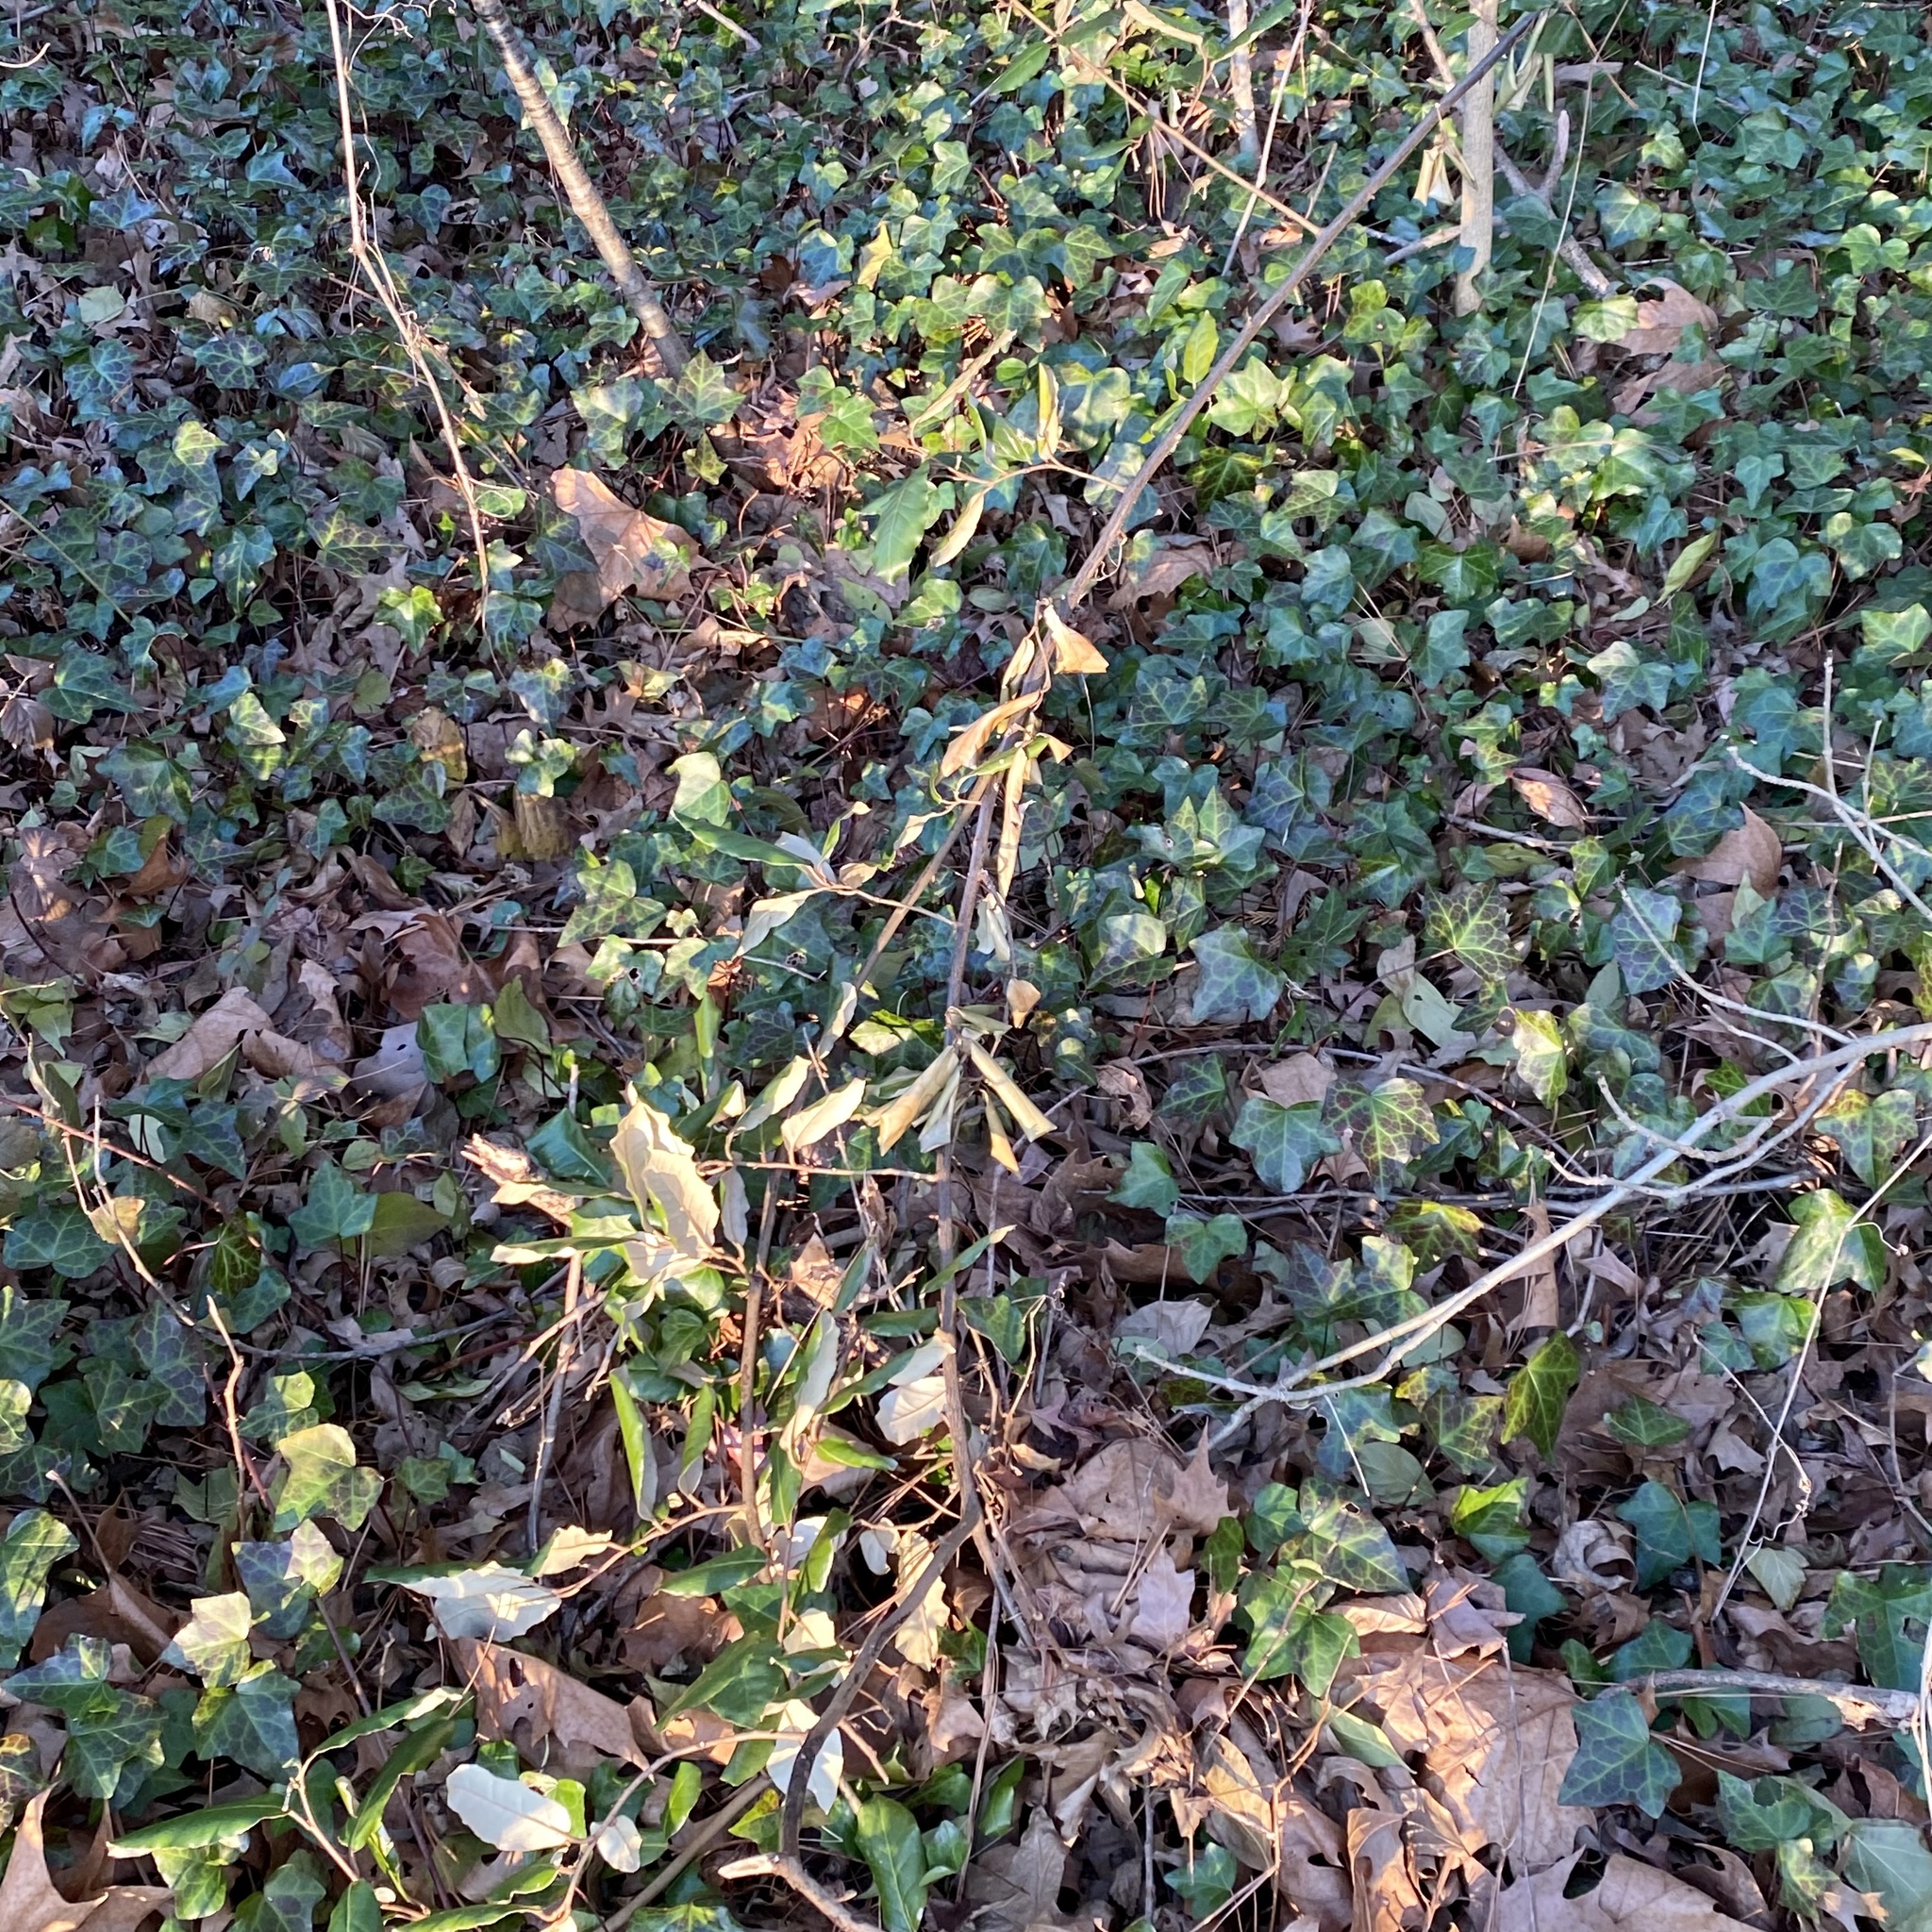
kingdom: Plantae
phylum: Tracheophyta
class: Magnoliopsida
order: Rosales
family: Elaeagnaceae
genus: Elaeagnus
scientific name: Elaeagnus pungens
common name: Spiny oleaster
